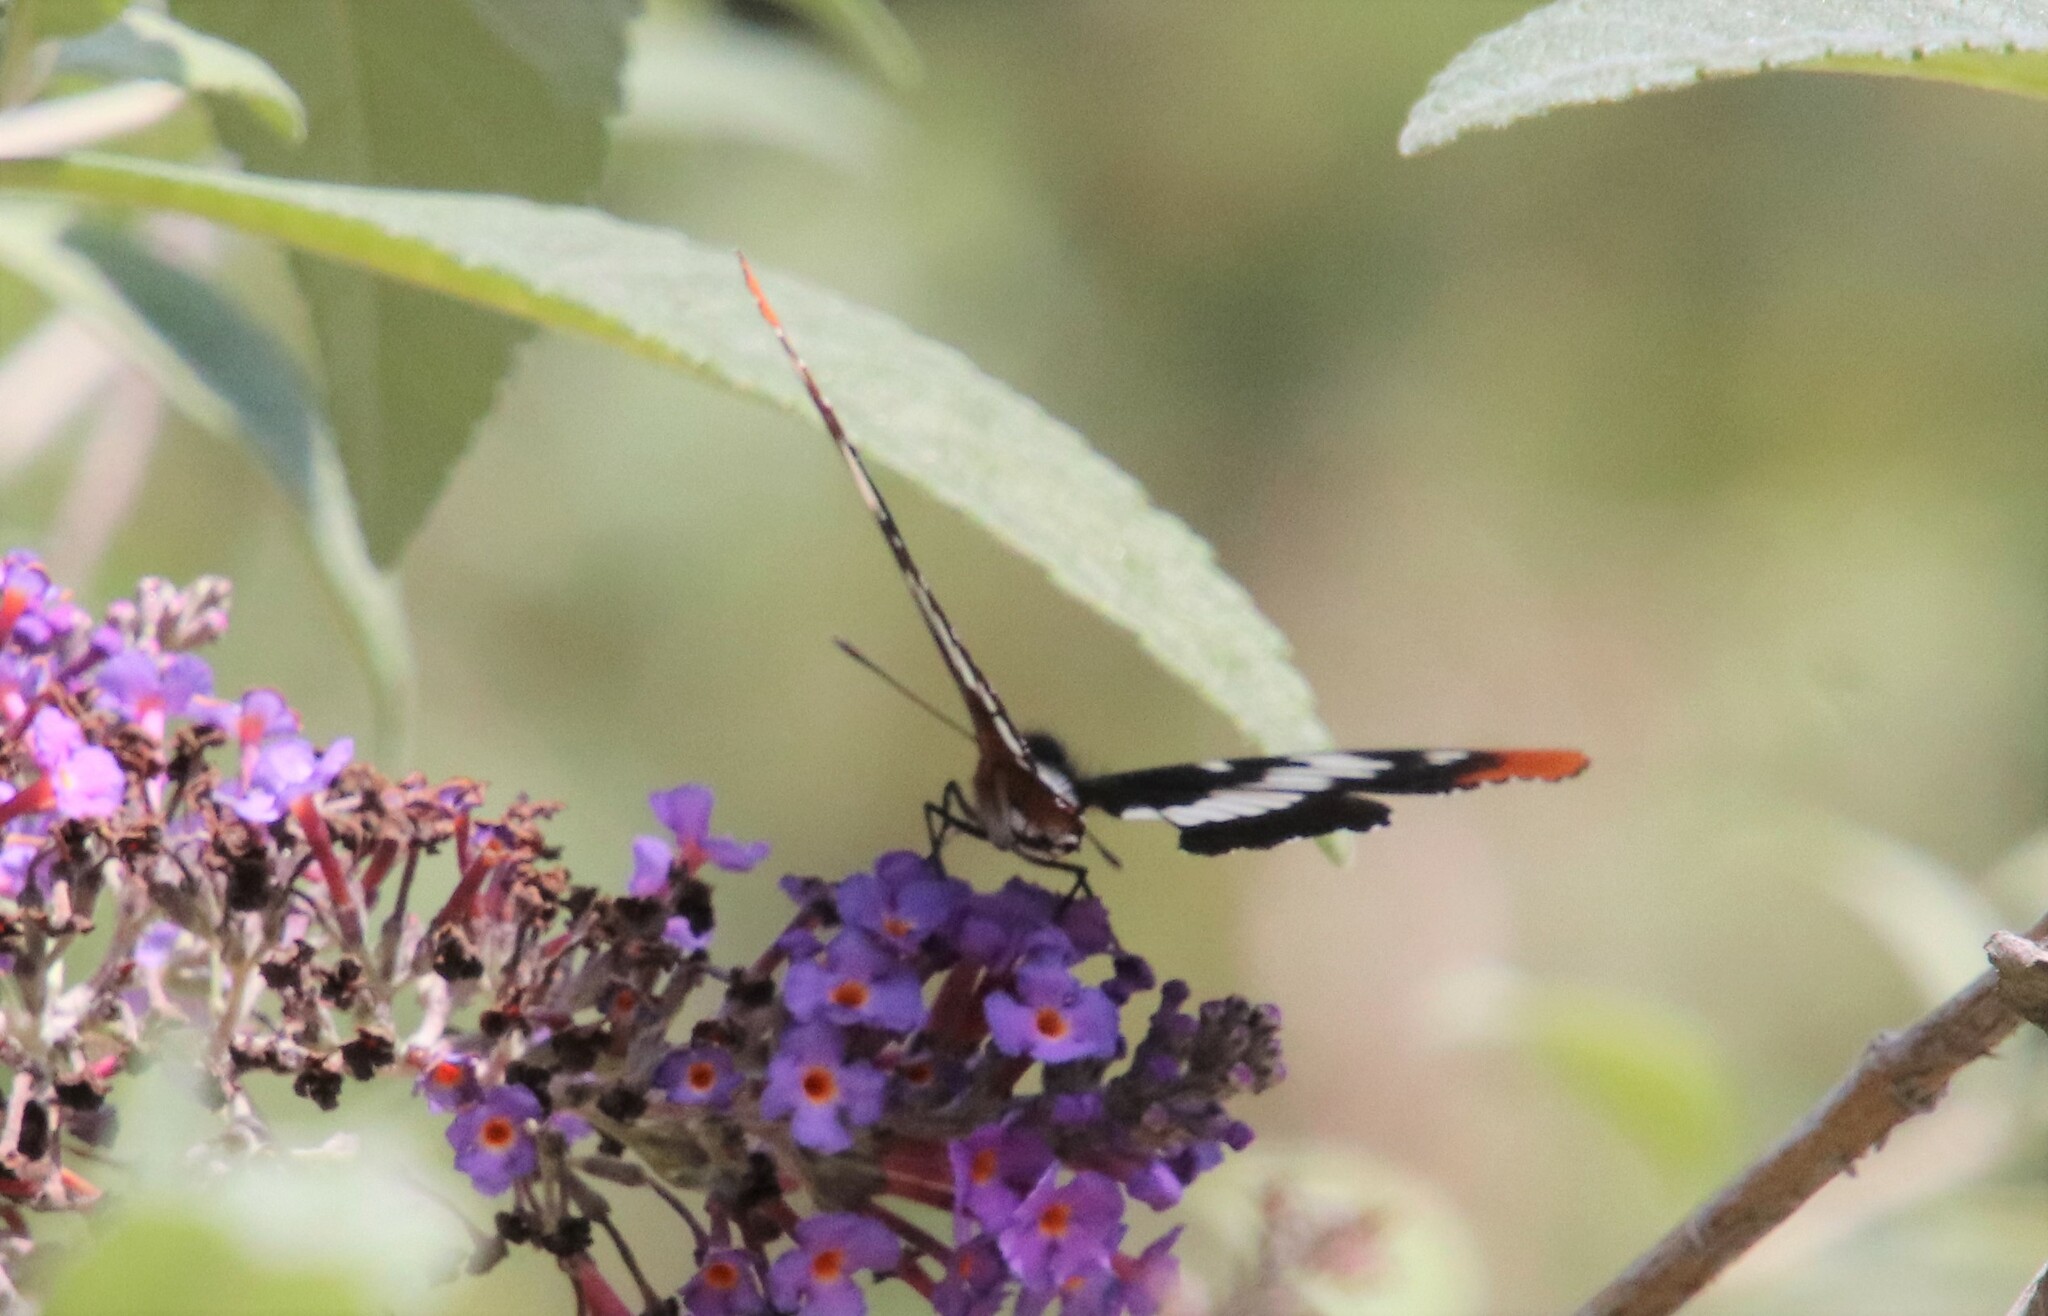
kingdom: Animalia
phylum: Arthropoda
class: Insecta
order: Lepidoptera
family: Nymphalidae
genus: Limenitis
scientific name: Limenitis lorquini
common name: Lorquin's admiral
